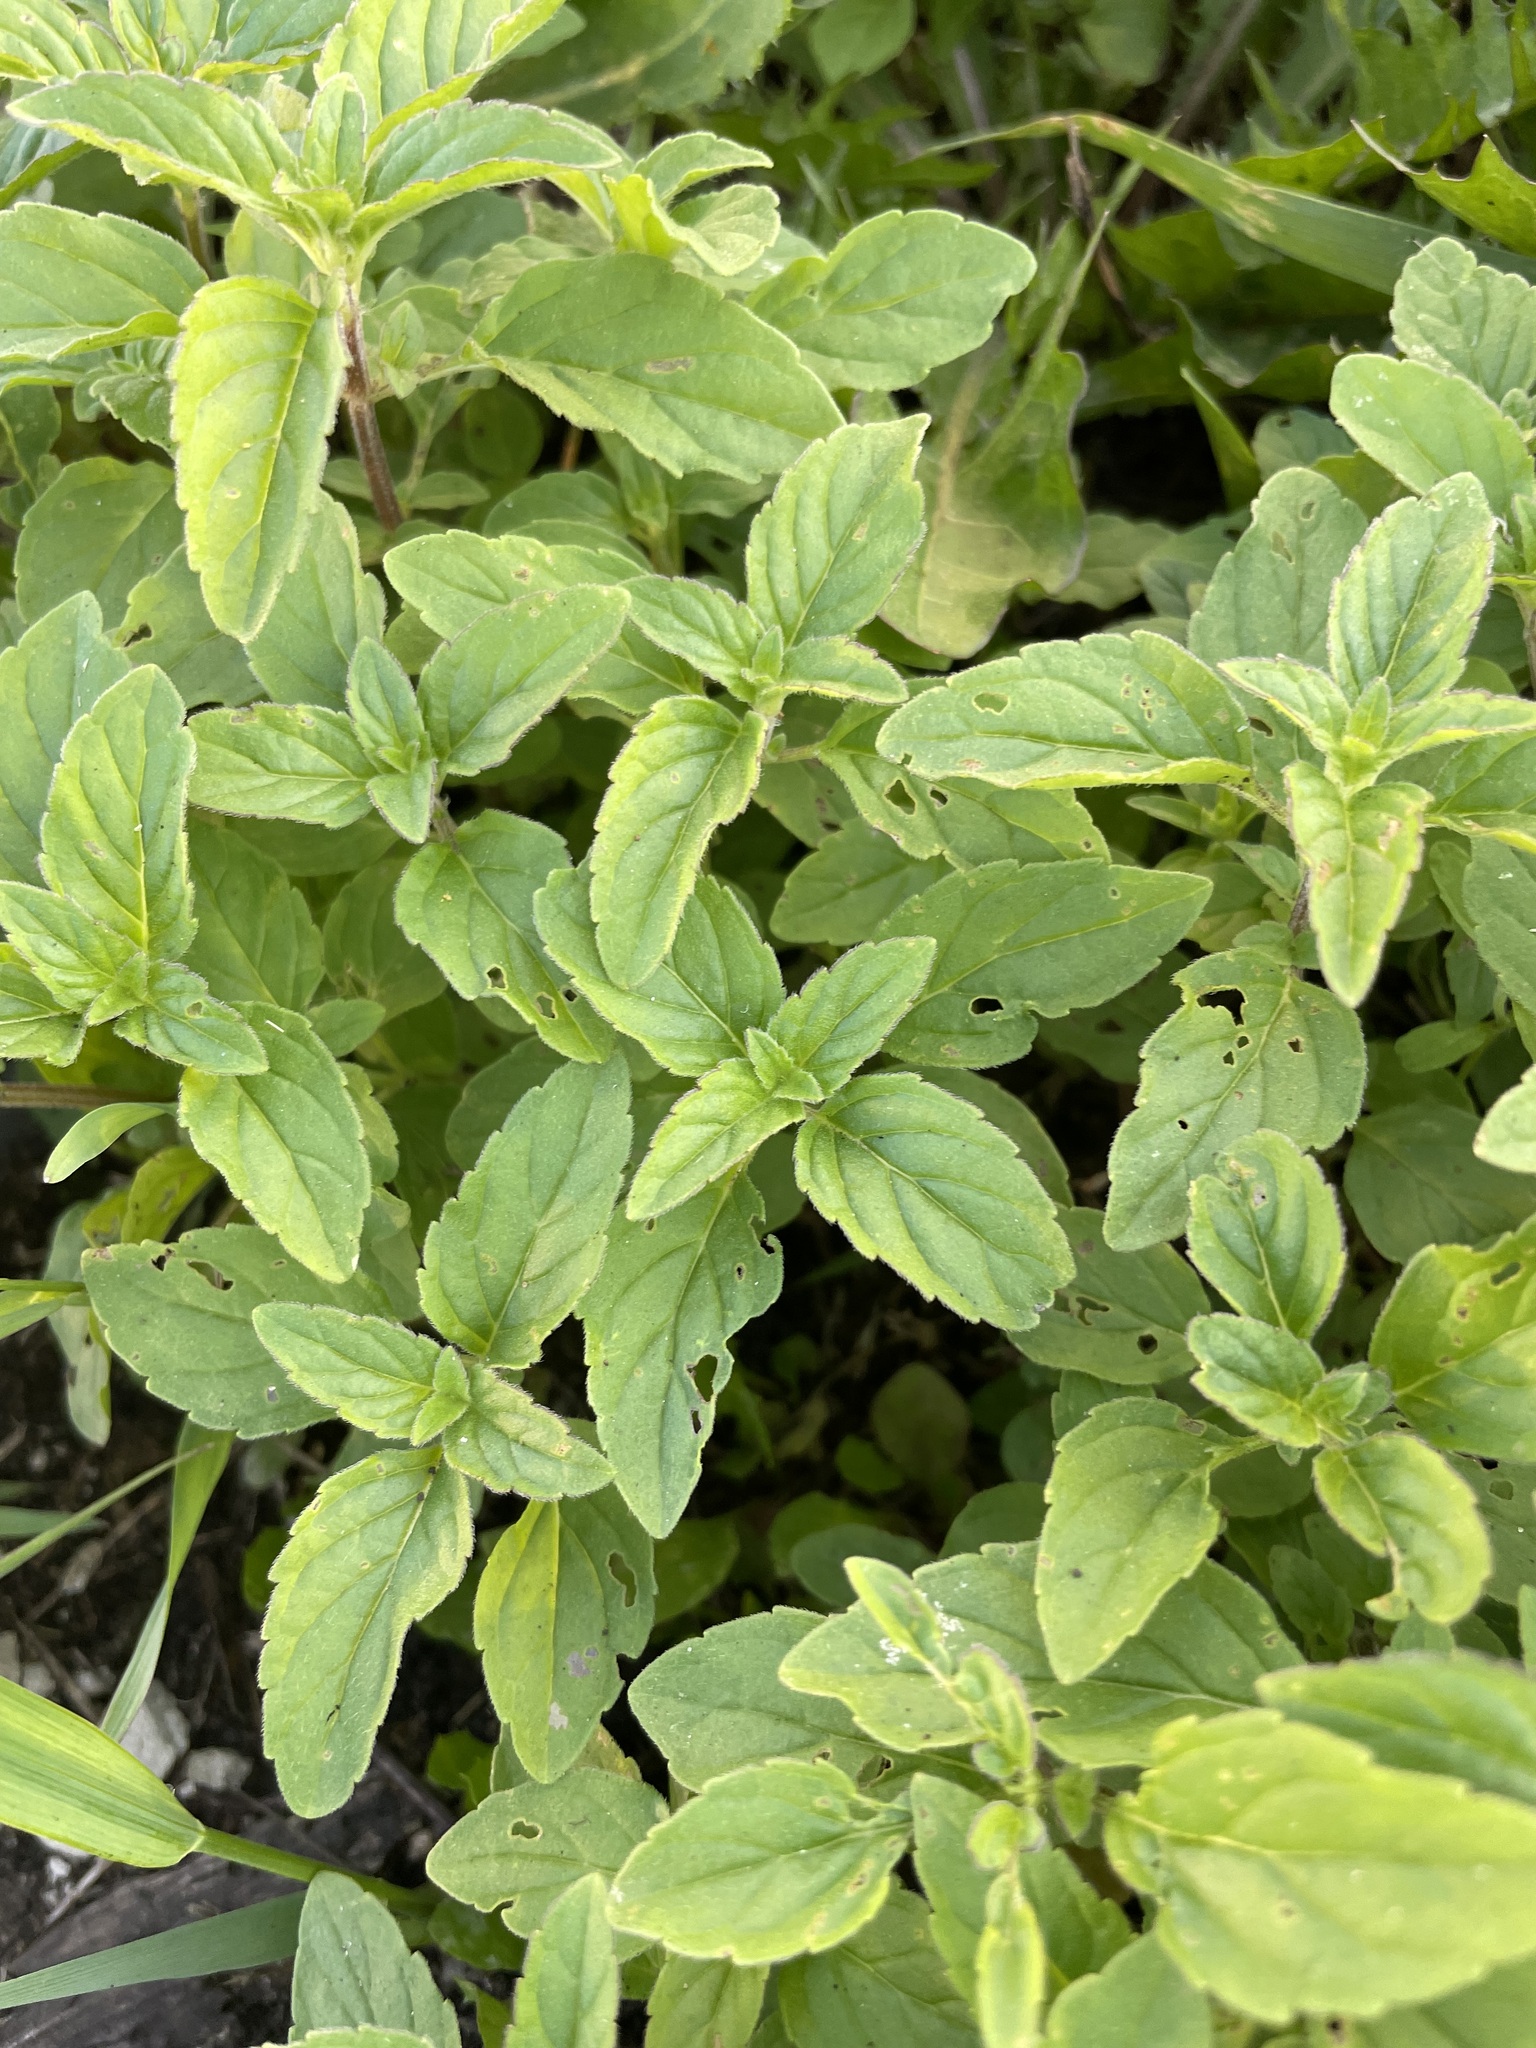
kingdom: Plantae
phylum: Tracheophyta
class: Magnoliopsida
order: Lamiales
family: Lamiaceae
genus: Mentha
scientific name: Mentha arvensis
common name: Corn mint
